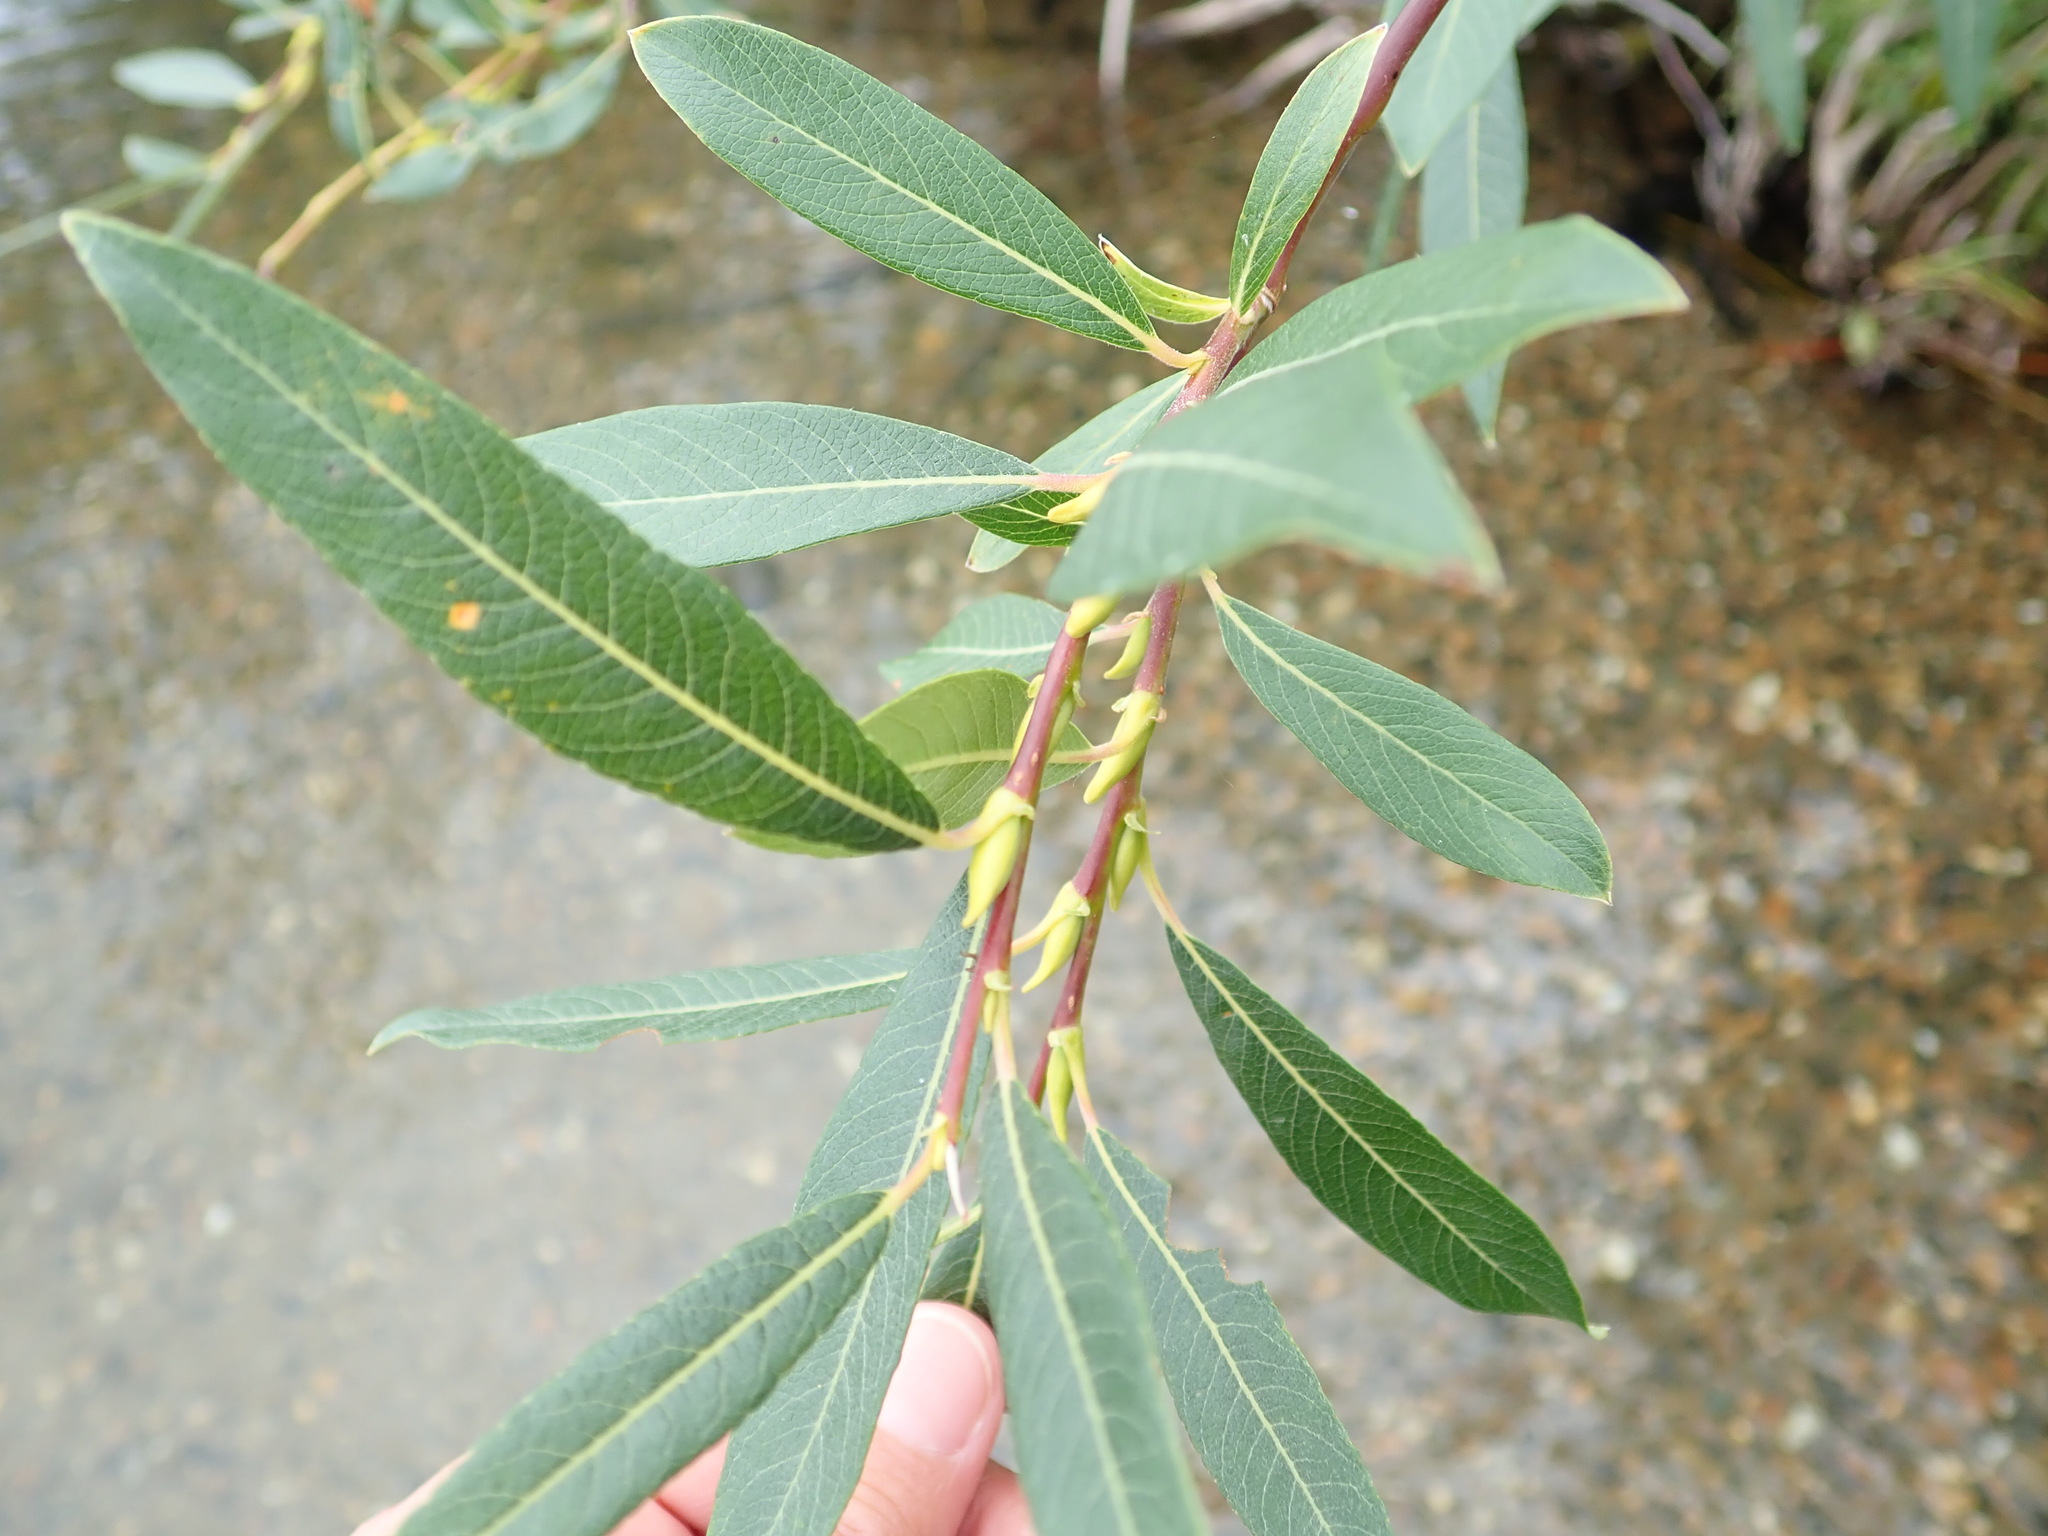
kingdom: Plantae
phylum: Tracheophyta
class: Magnoliopsida
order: Malpighiales
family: Salicaceae
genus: Salix
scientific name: Salix drummondiana
